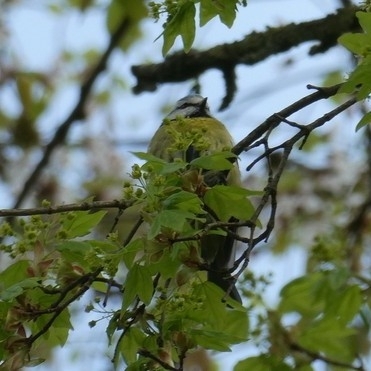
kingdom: Animalia
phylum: Chordata
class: Aves
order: Passeriformes
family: Paridae
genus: Cyanistes
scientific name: Cyanistes caeruleus
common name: Eurasian blue tit
